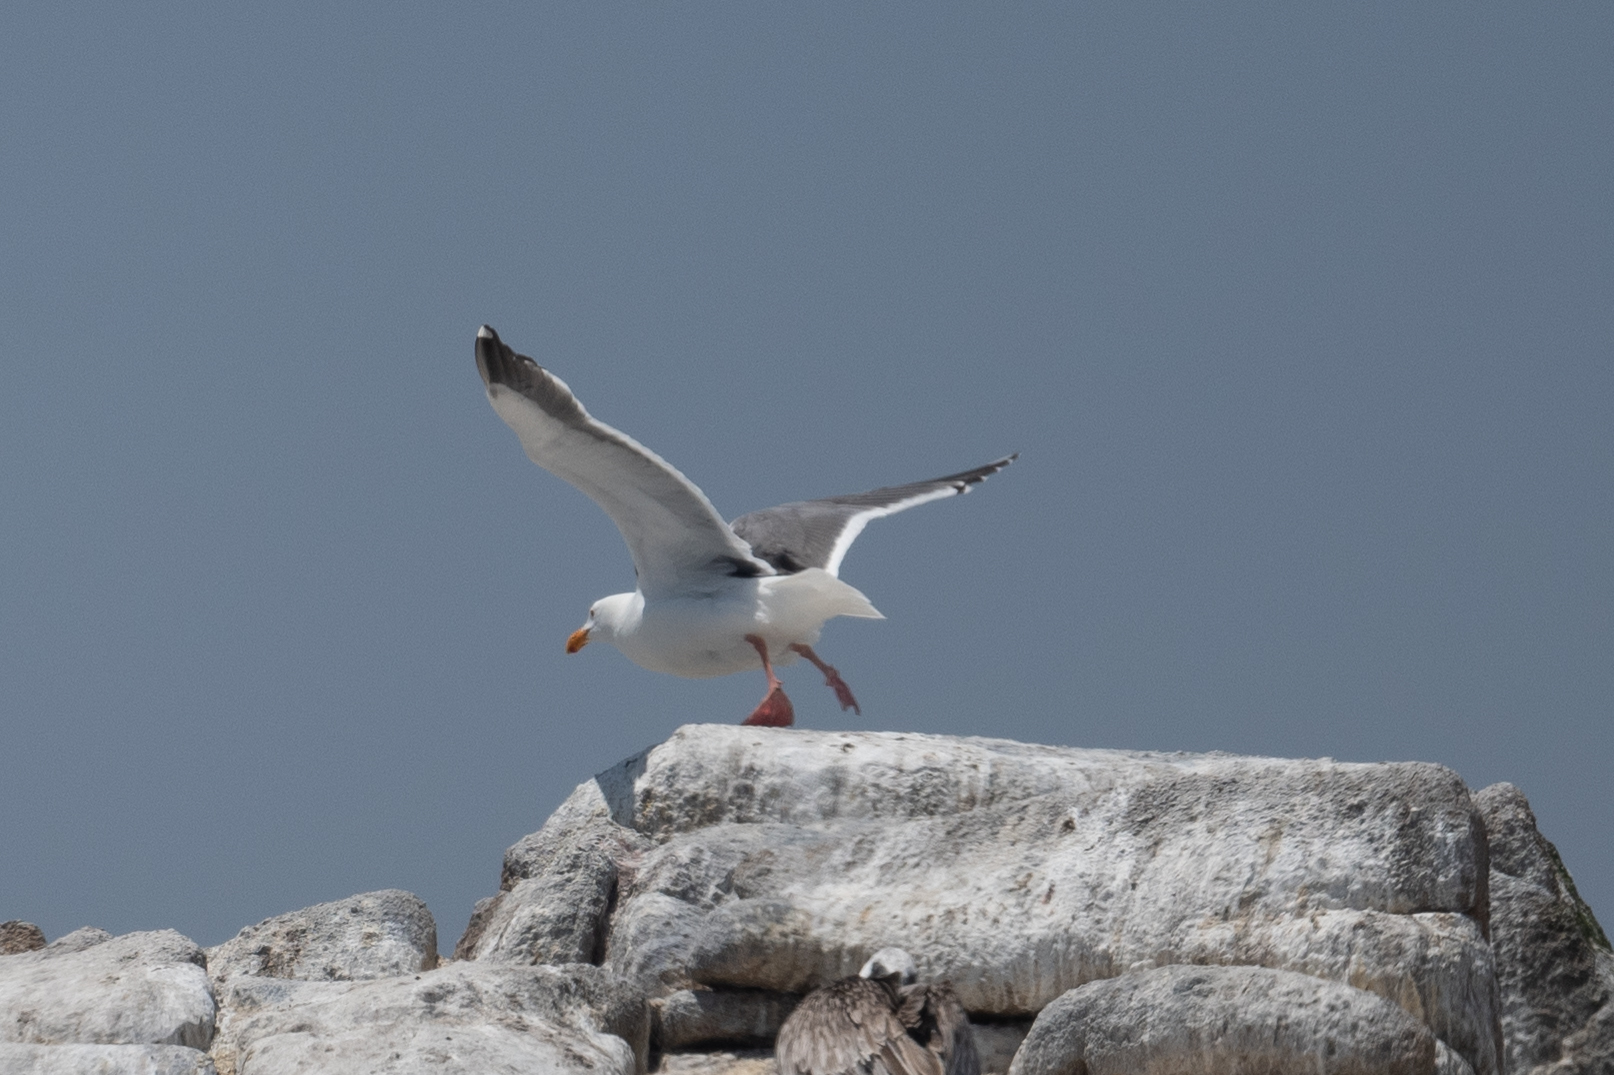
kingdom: Animalia
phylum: Chordata
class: Aves
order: Charadriiformes
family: Laridae
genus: Larus
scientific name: Larus occidentalis
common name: Western gull
